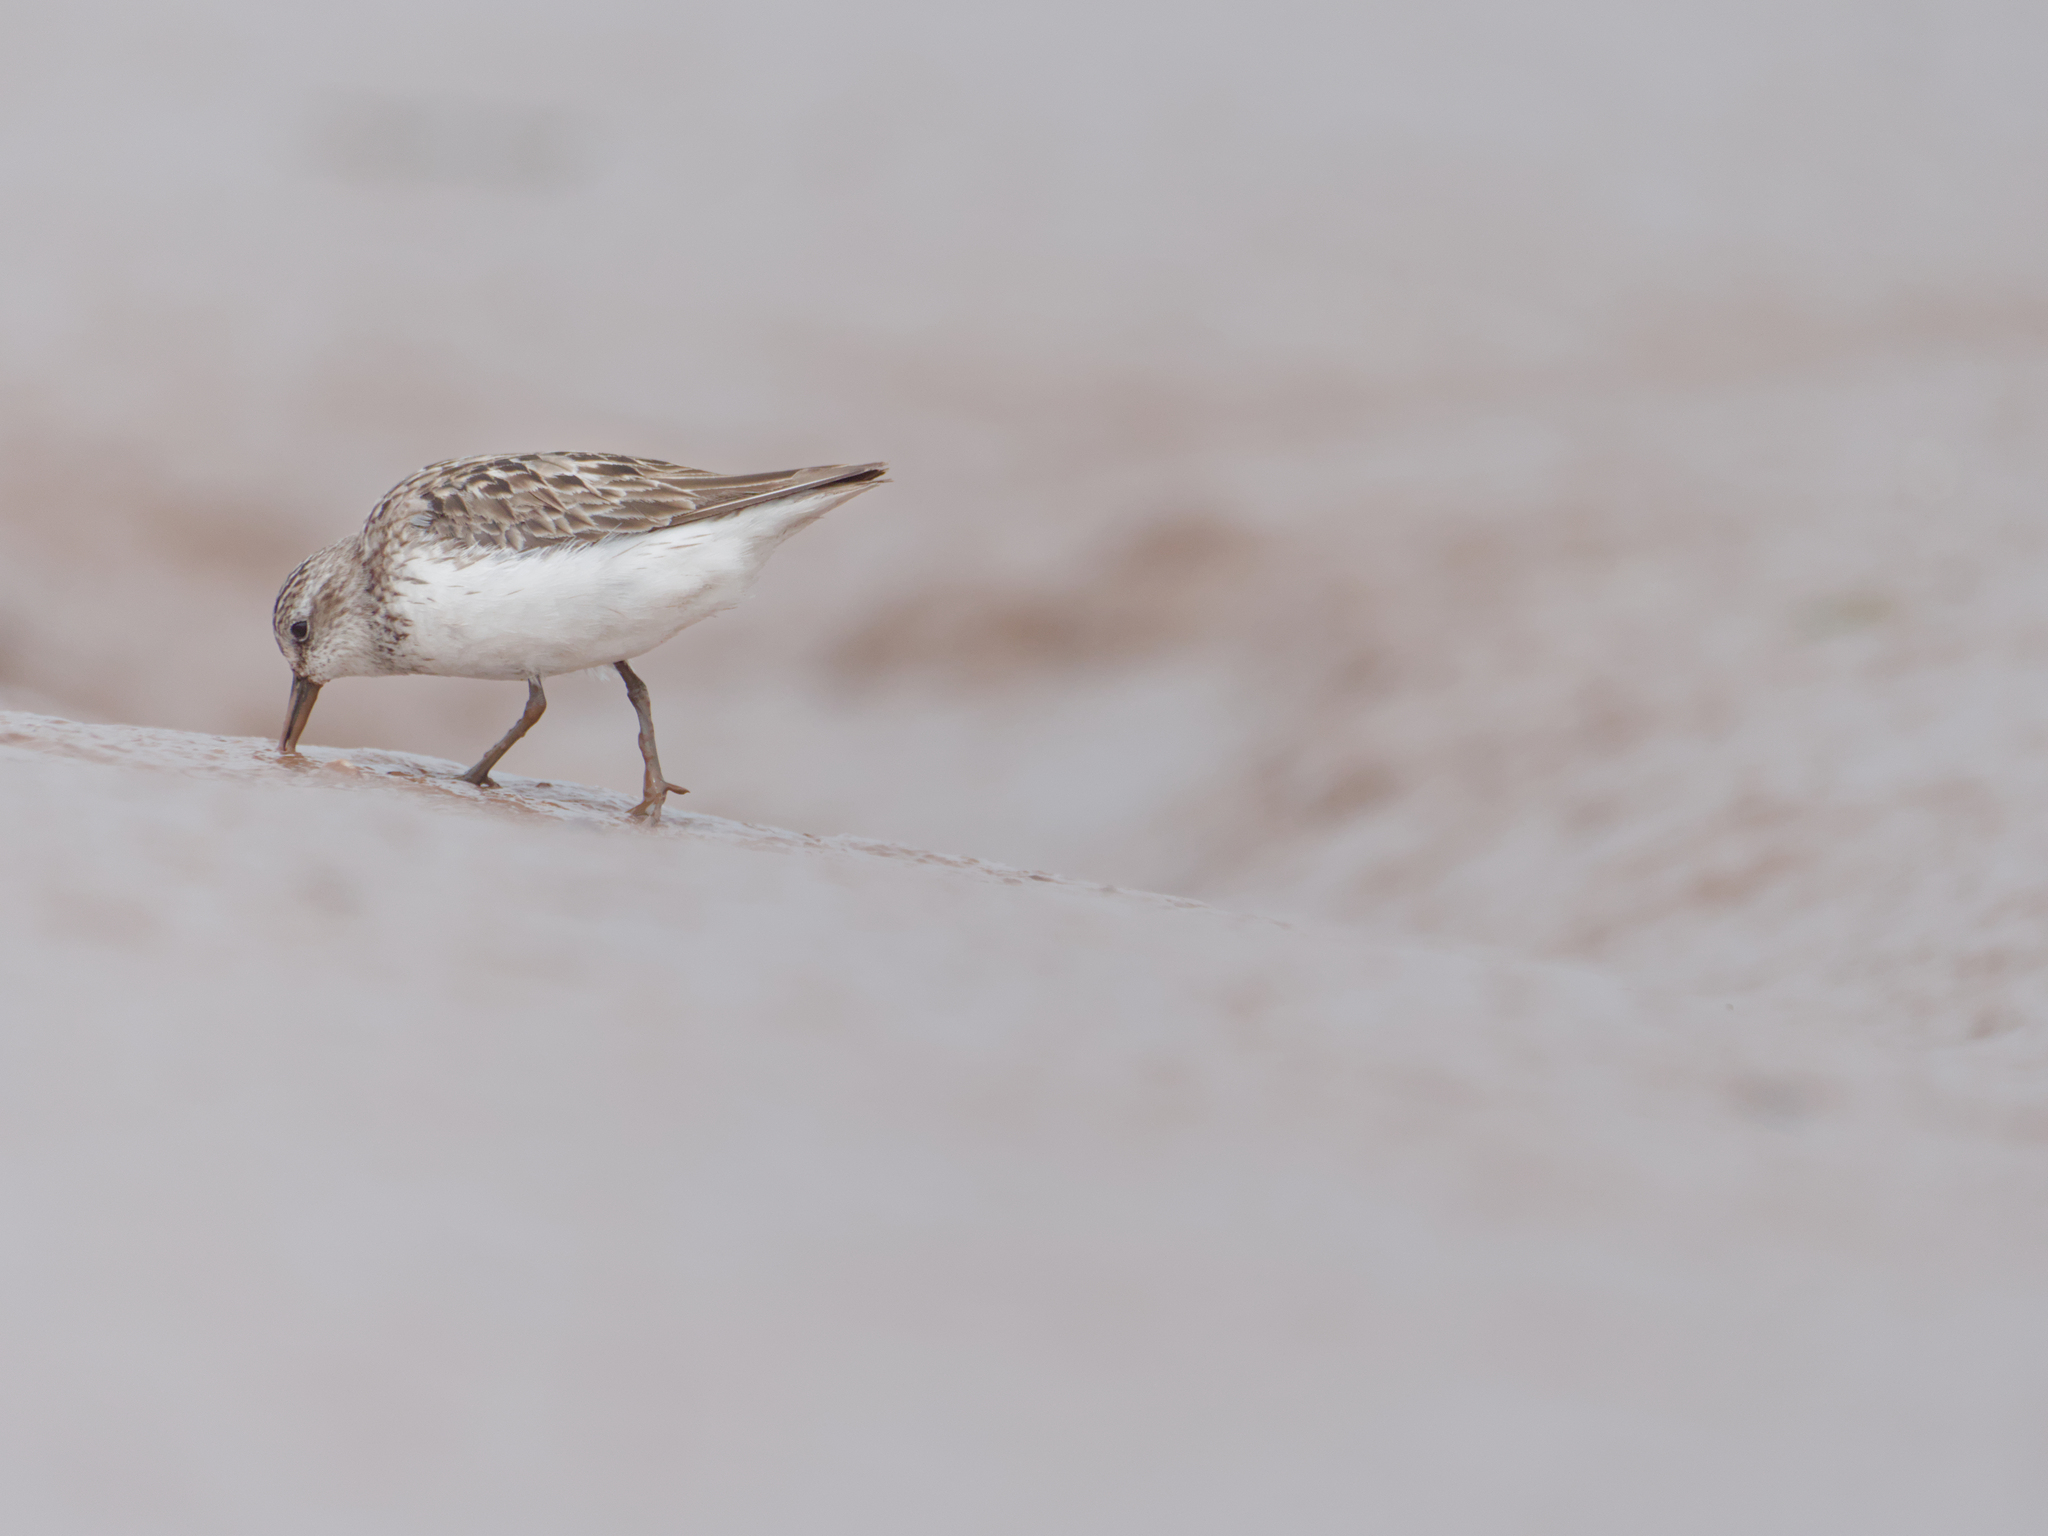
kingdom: Animalia
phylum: Chordata
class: Aves
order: Charadriiformes
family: Scolopacidae
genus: Calidris
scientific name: Calidris pusilla
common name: Semipalmated sandpiper
